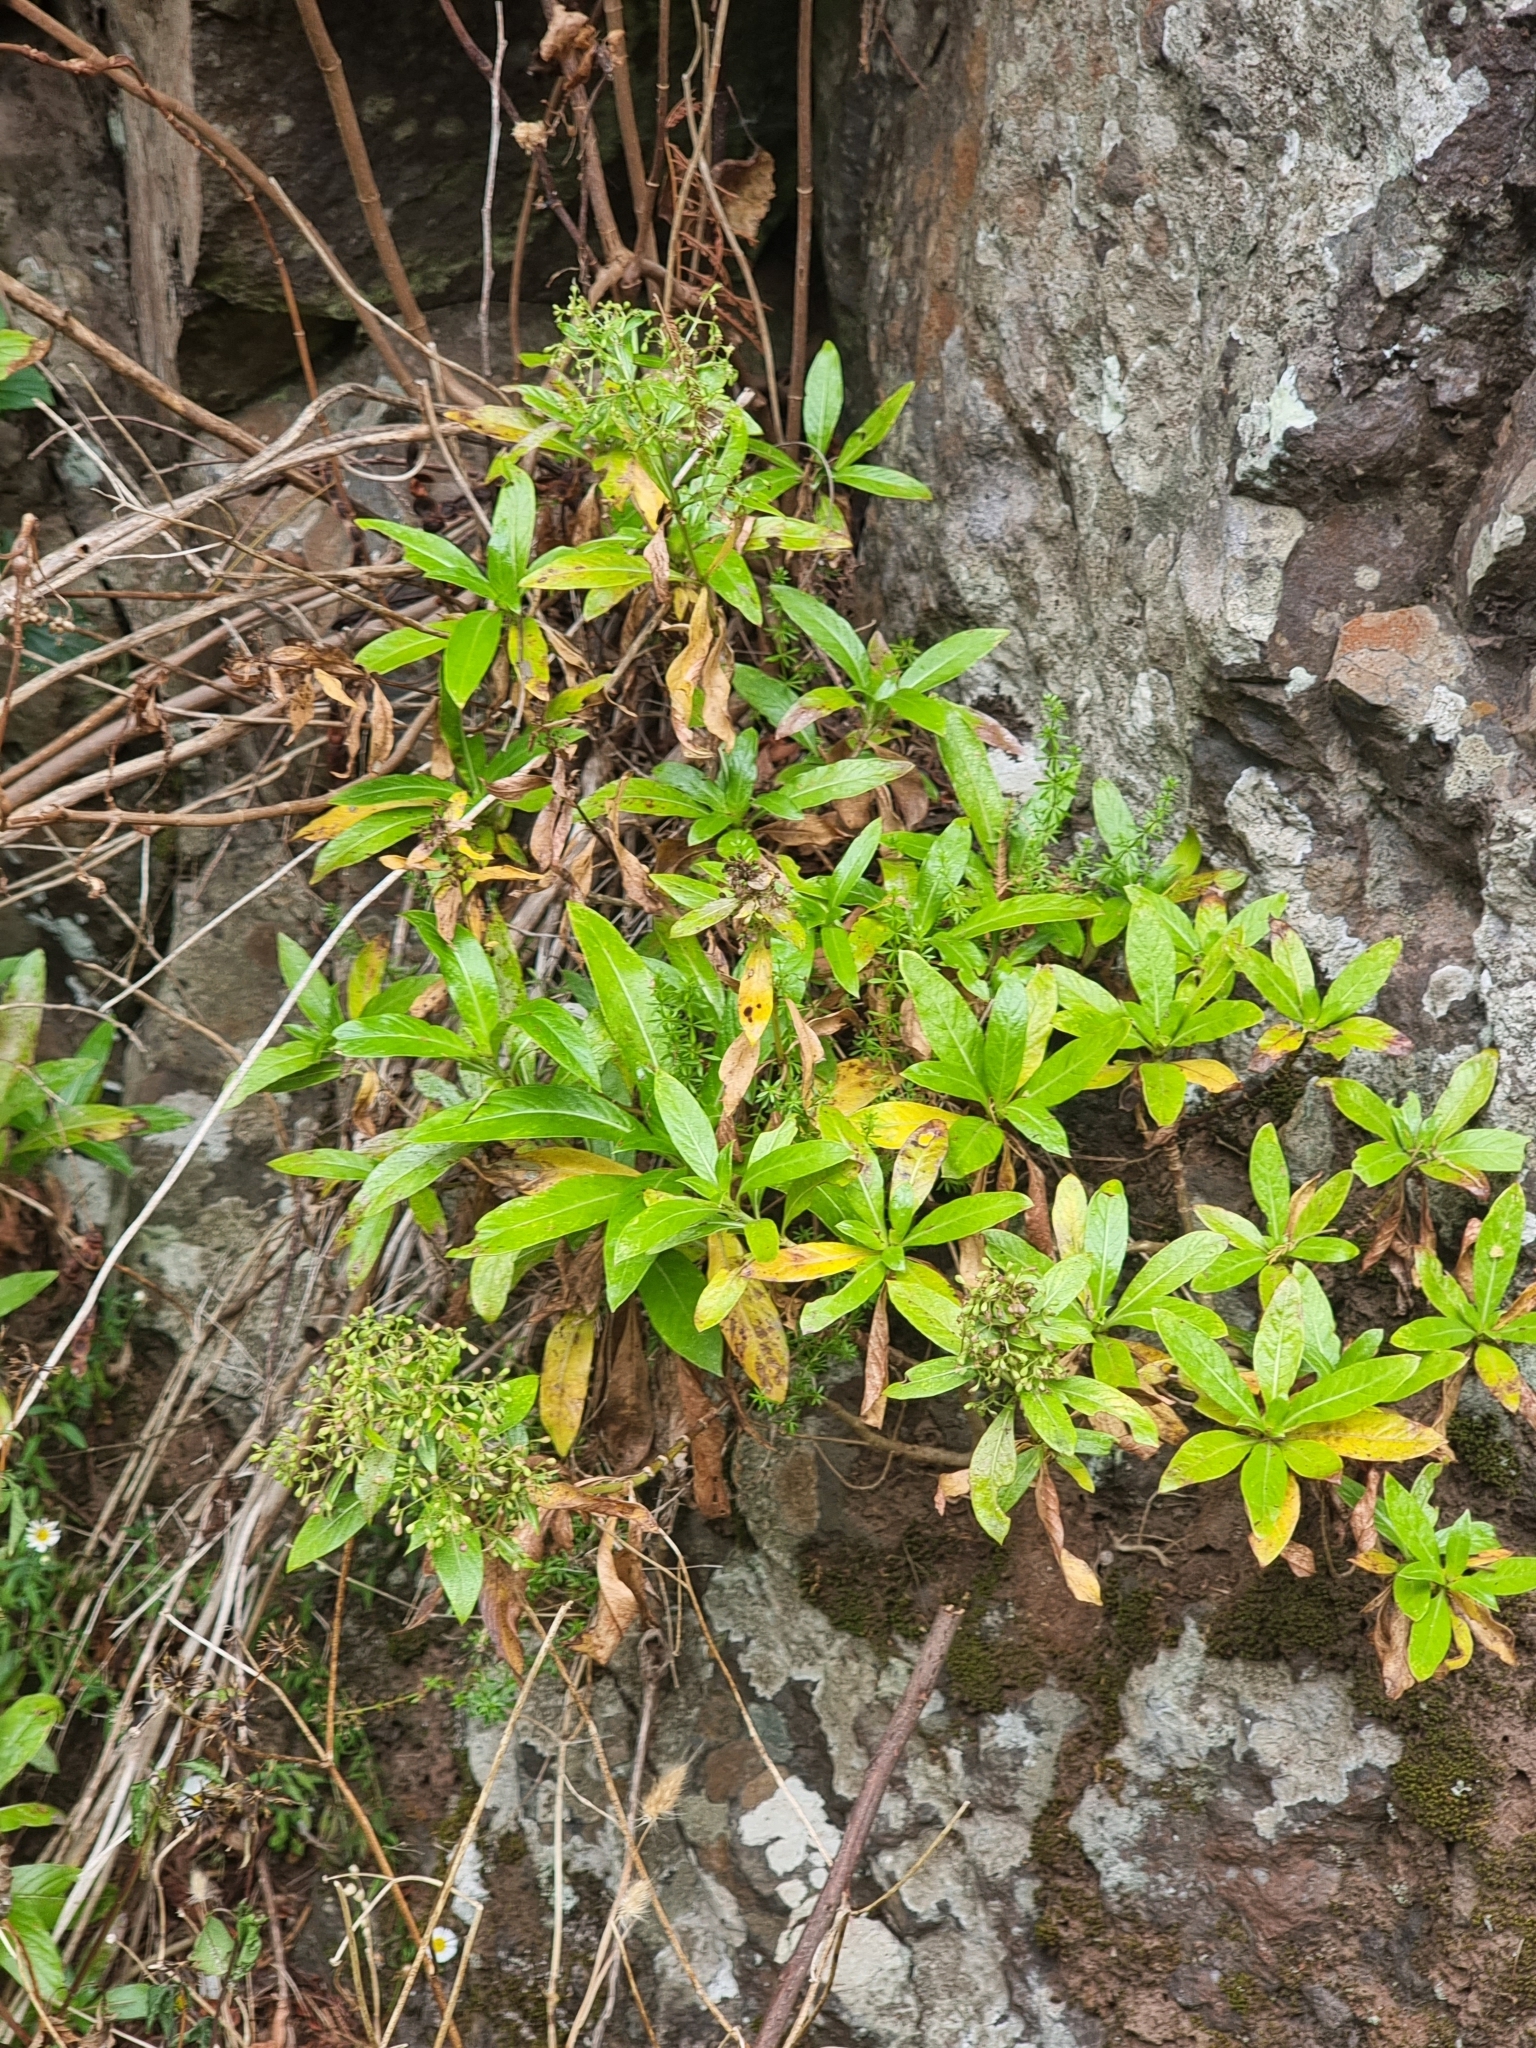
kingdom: Plantae
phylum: Tracheophyta
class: Magnoliopsida
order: Gentianales
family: Rubiaceae
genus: Phyllis
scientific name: Phyllis nobla
